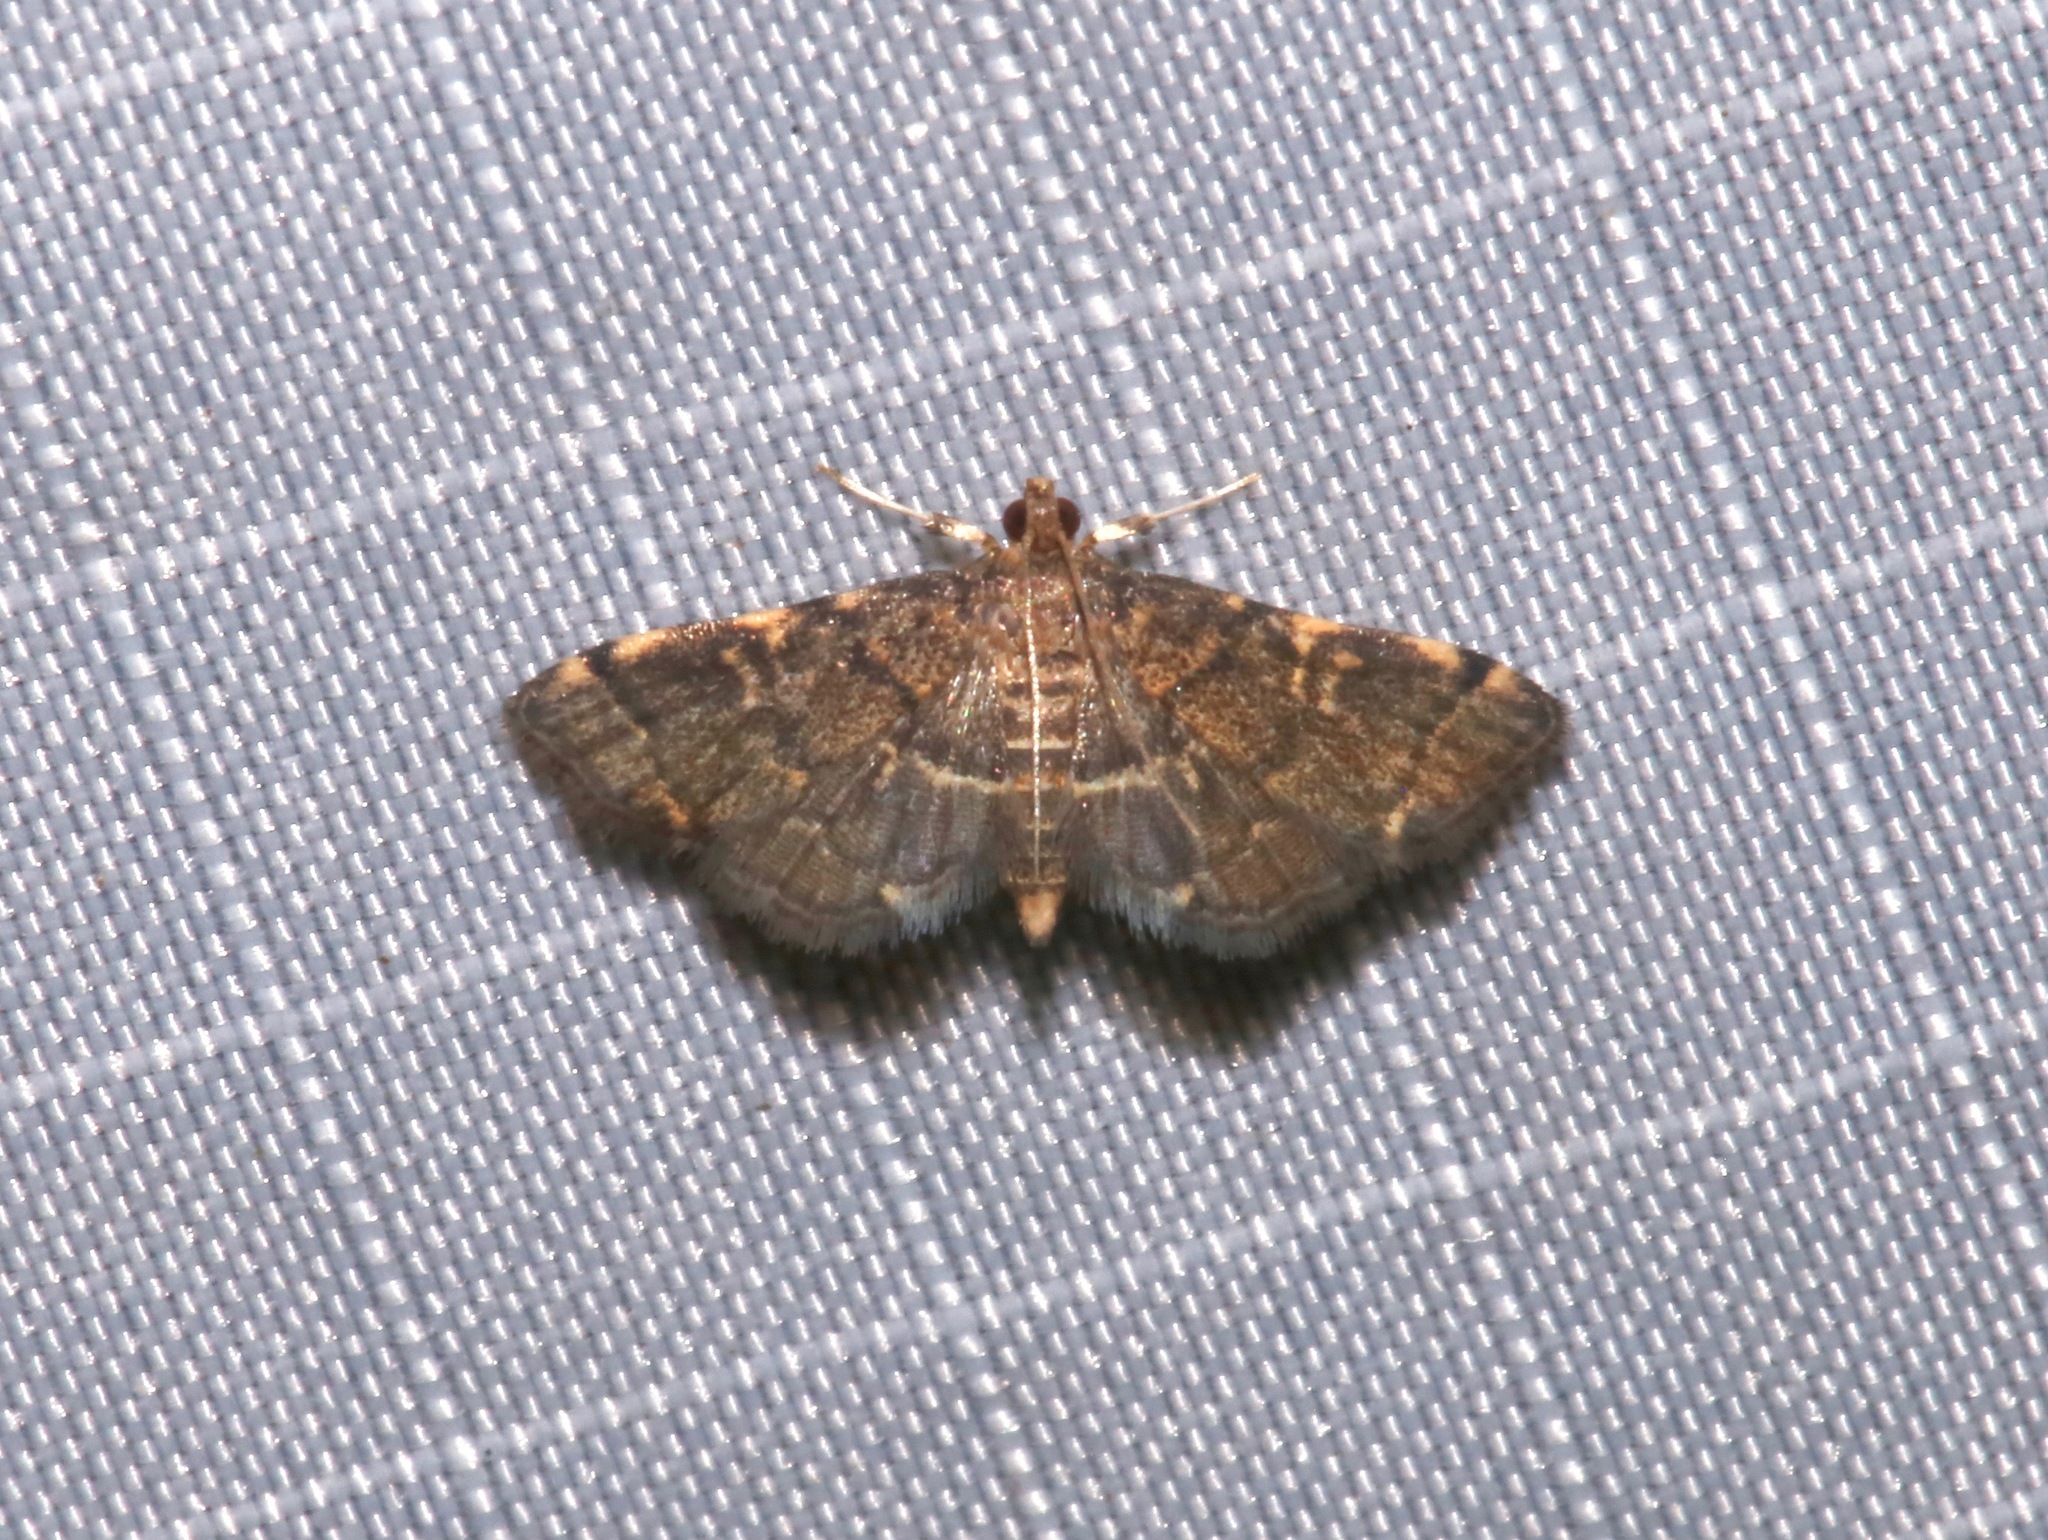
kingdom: Animalia
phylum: Arthropoda
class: Insecta
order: Lepidoptera
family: Crambidae
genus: Anageshna
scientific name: Anageshna primordialis
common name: Yellow-spotted webworm moth
